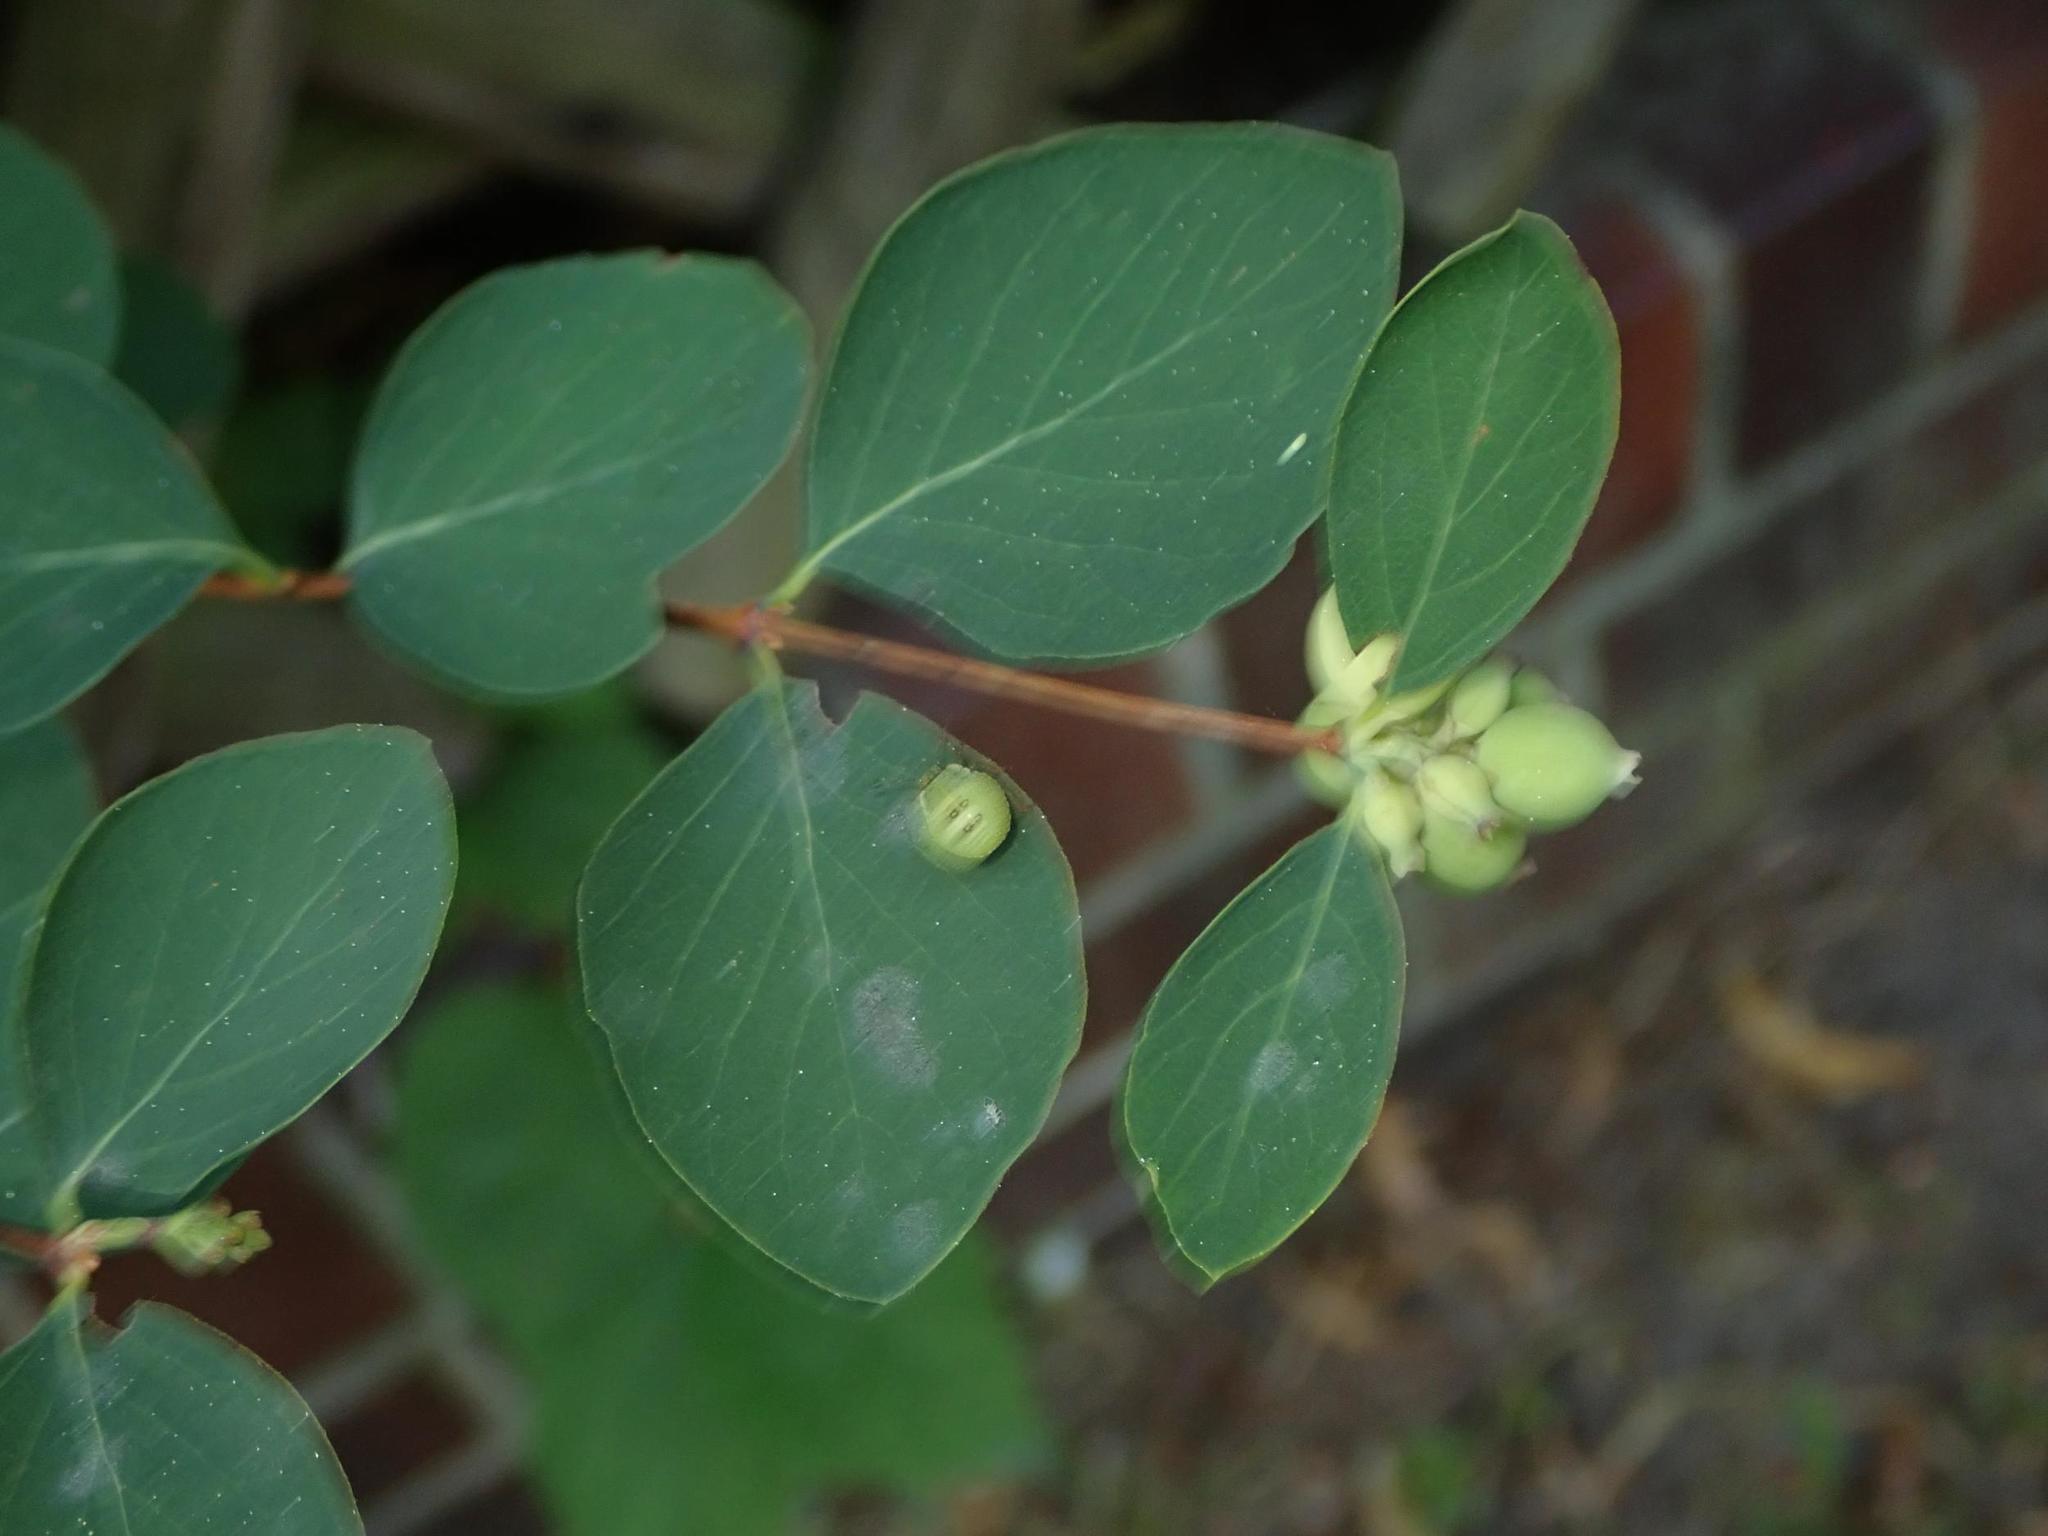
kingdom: Plantae
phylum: Tracheophyta
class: Magnoliopsida
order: Dipsacales
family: Caprifoliaceae
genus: Symphoricarpos
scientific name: Symphoricarpos albus
